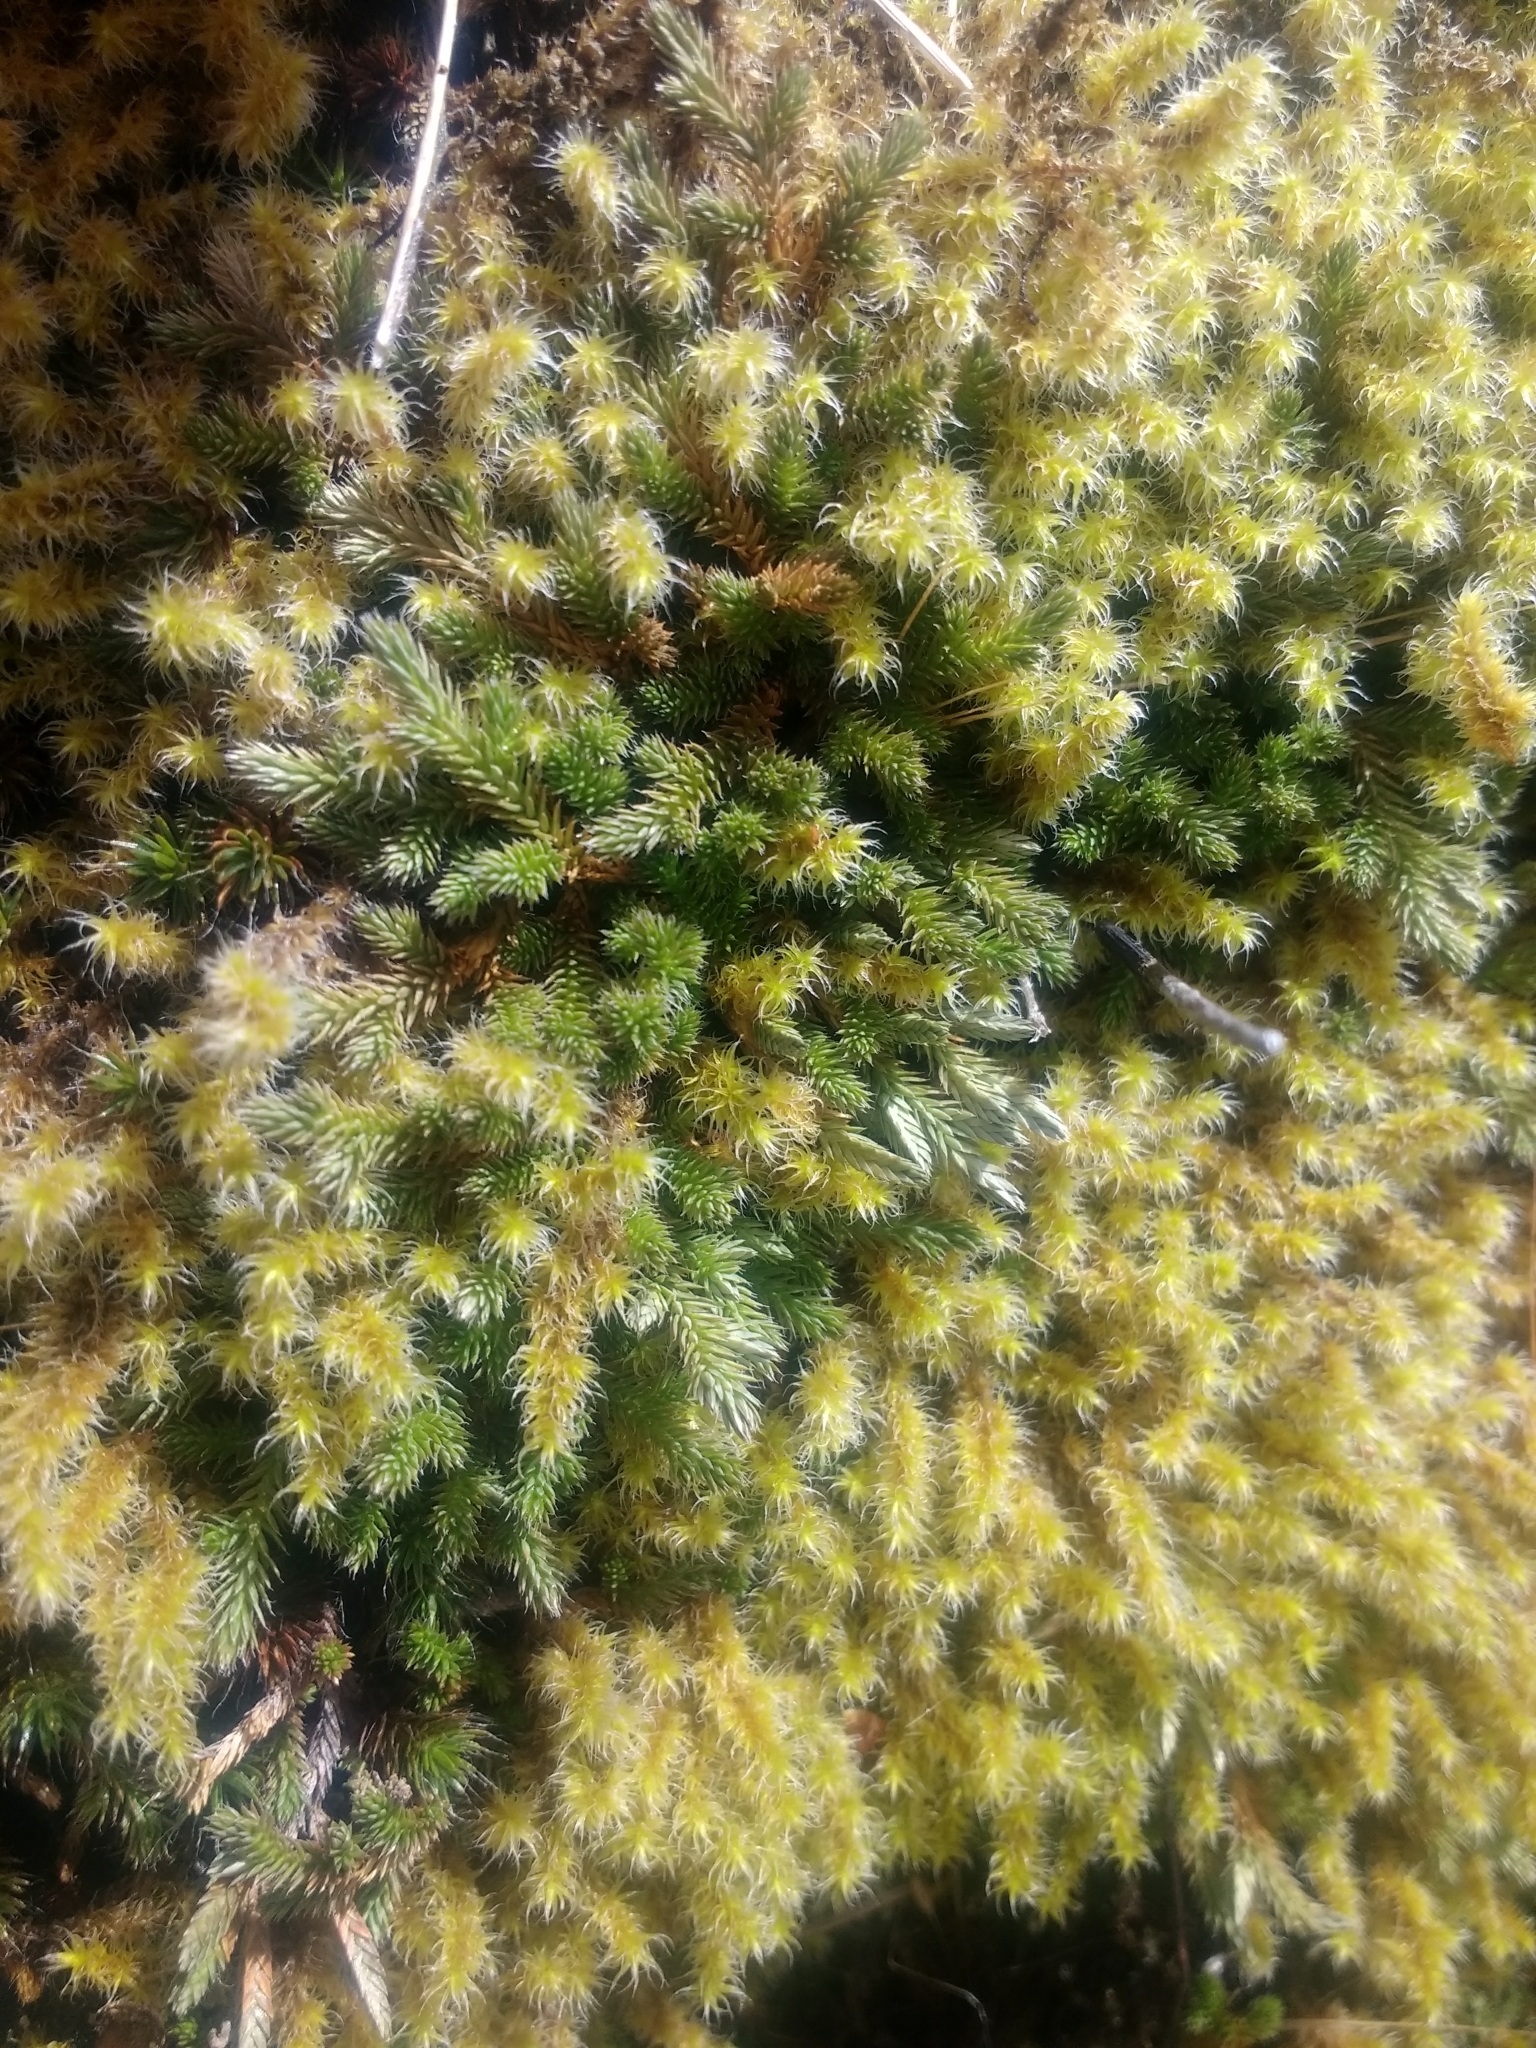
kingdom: Plantae
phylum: Tracheophyta
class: Lycopodiopsida
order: Selaginellales
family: Selaginellaceae
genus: Selaginella
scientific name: Selaginella wallacei
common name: Wallace's selaginella
